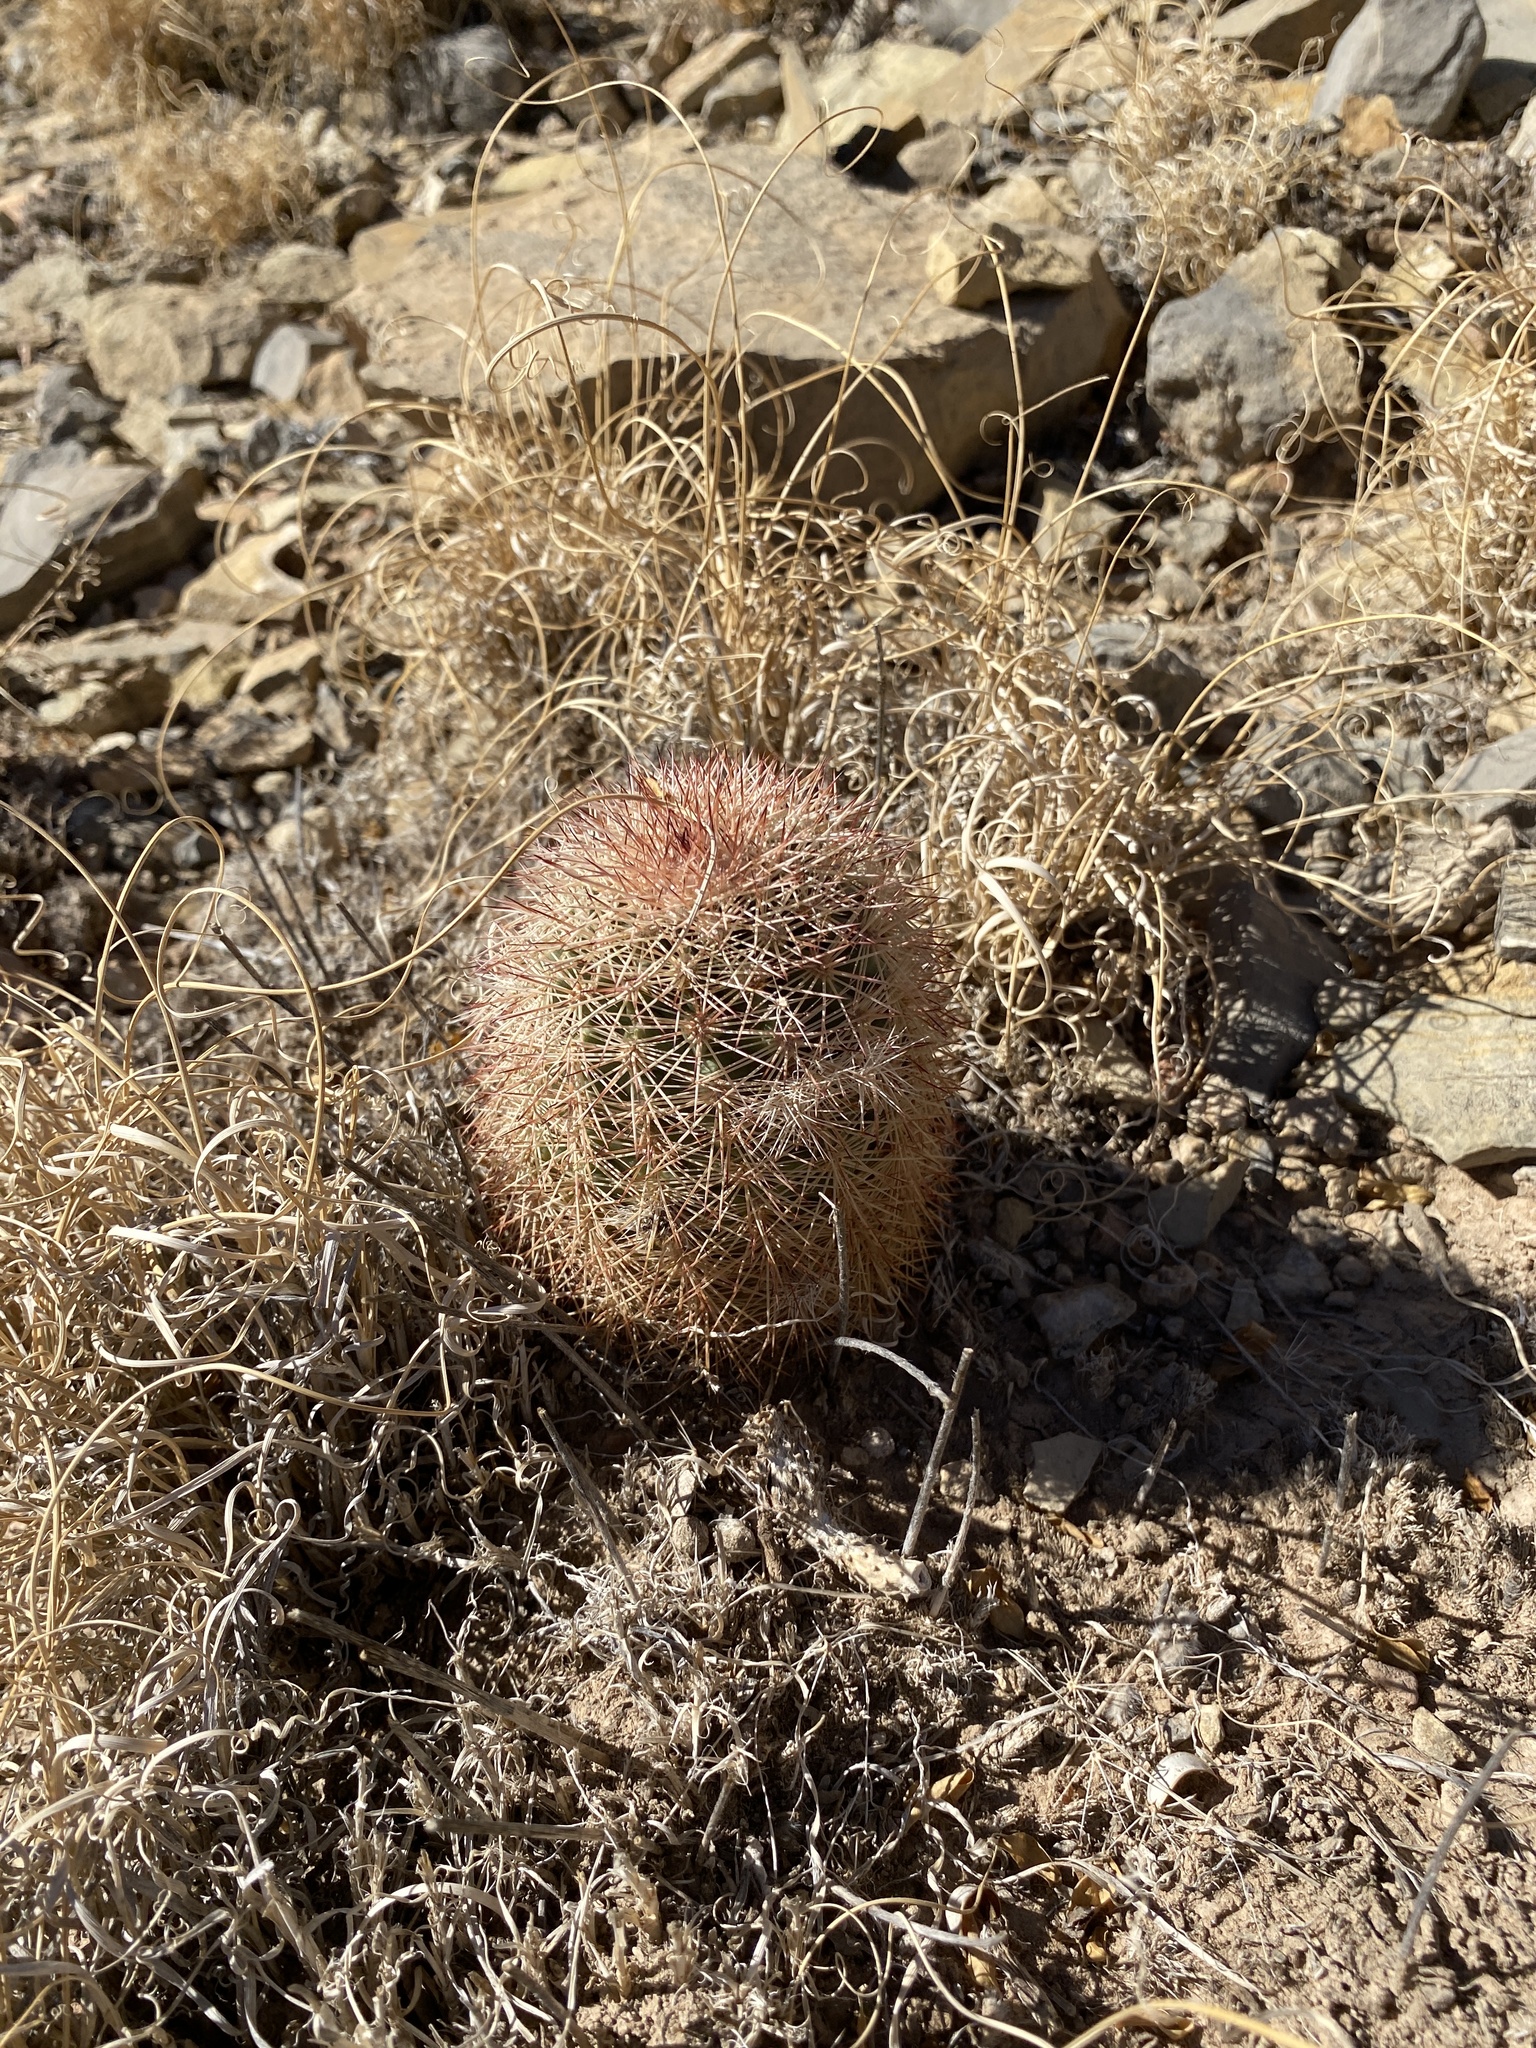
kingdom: Plantae
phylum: Tracheophyta
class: Magnoliopsida
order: Caryophyllales
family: Cactaceae
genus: Echinocereus
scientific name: Echinocereus dasyacanthus
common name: Spiny hedgehog cactus
